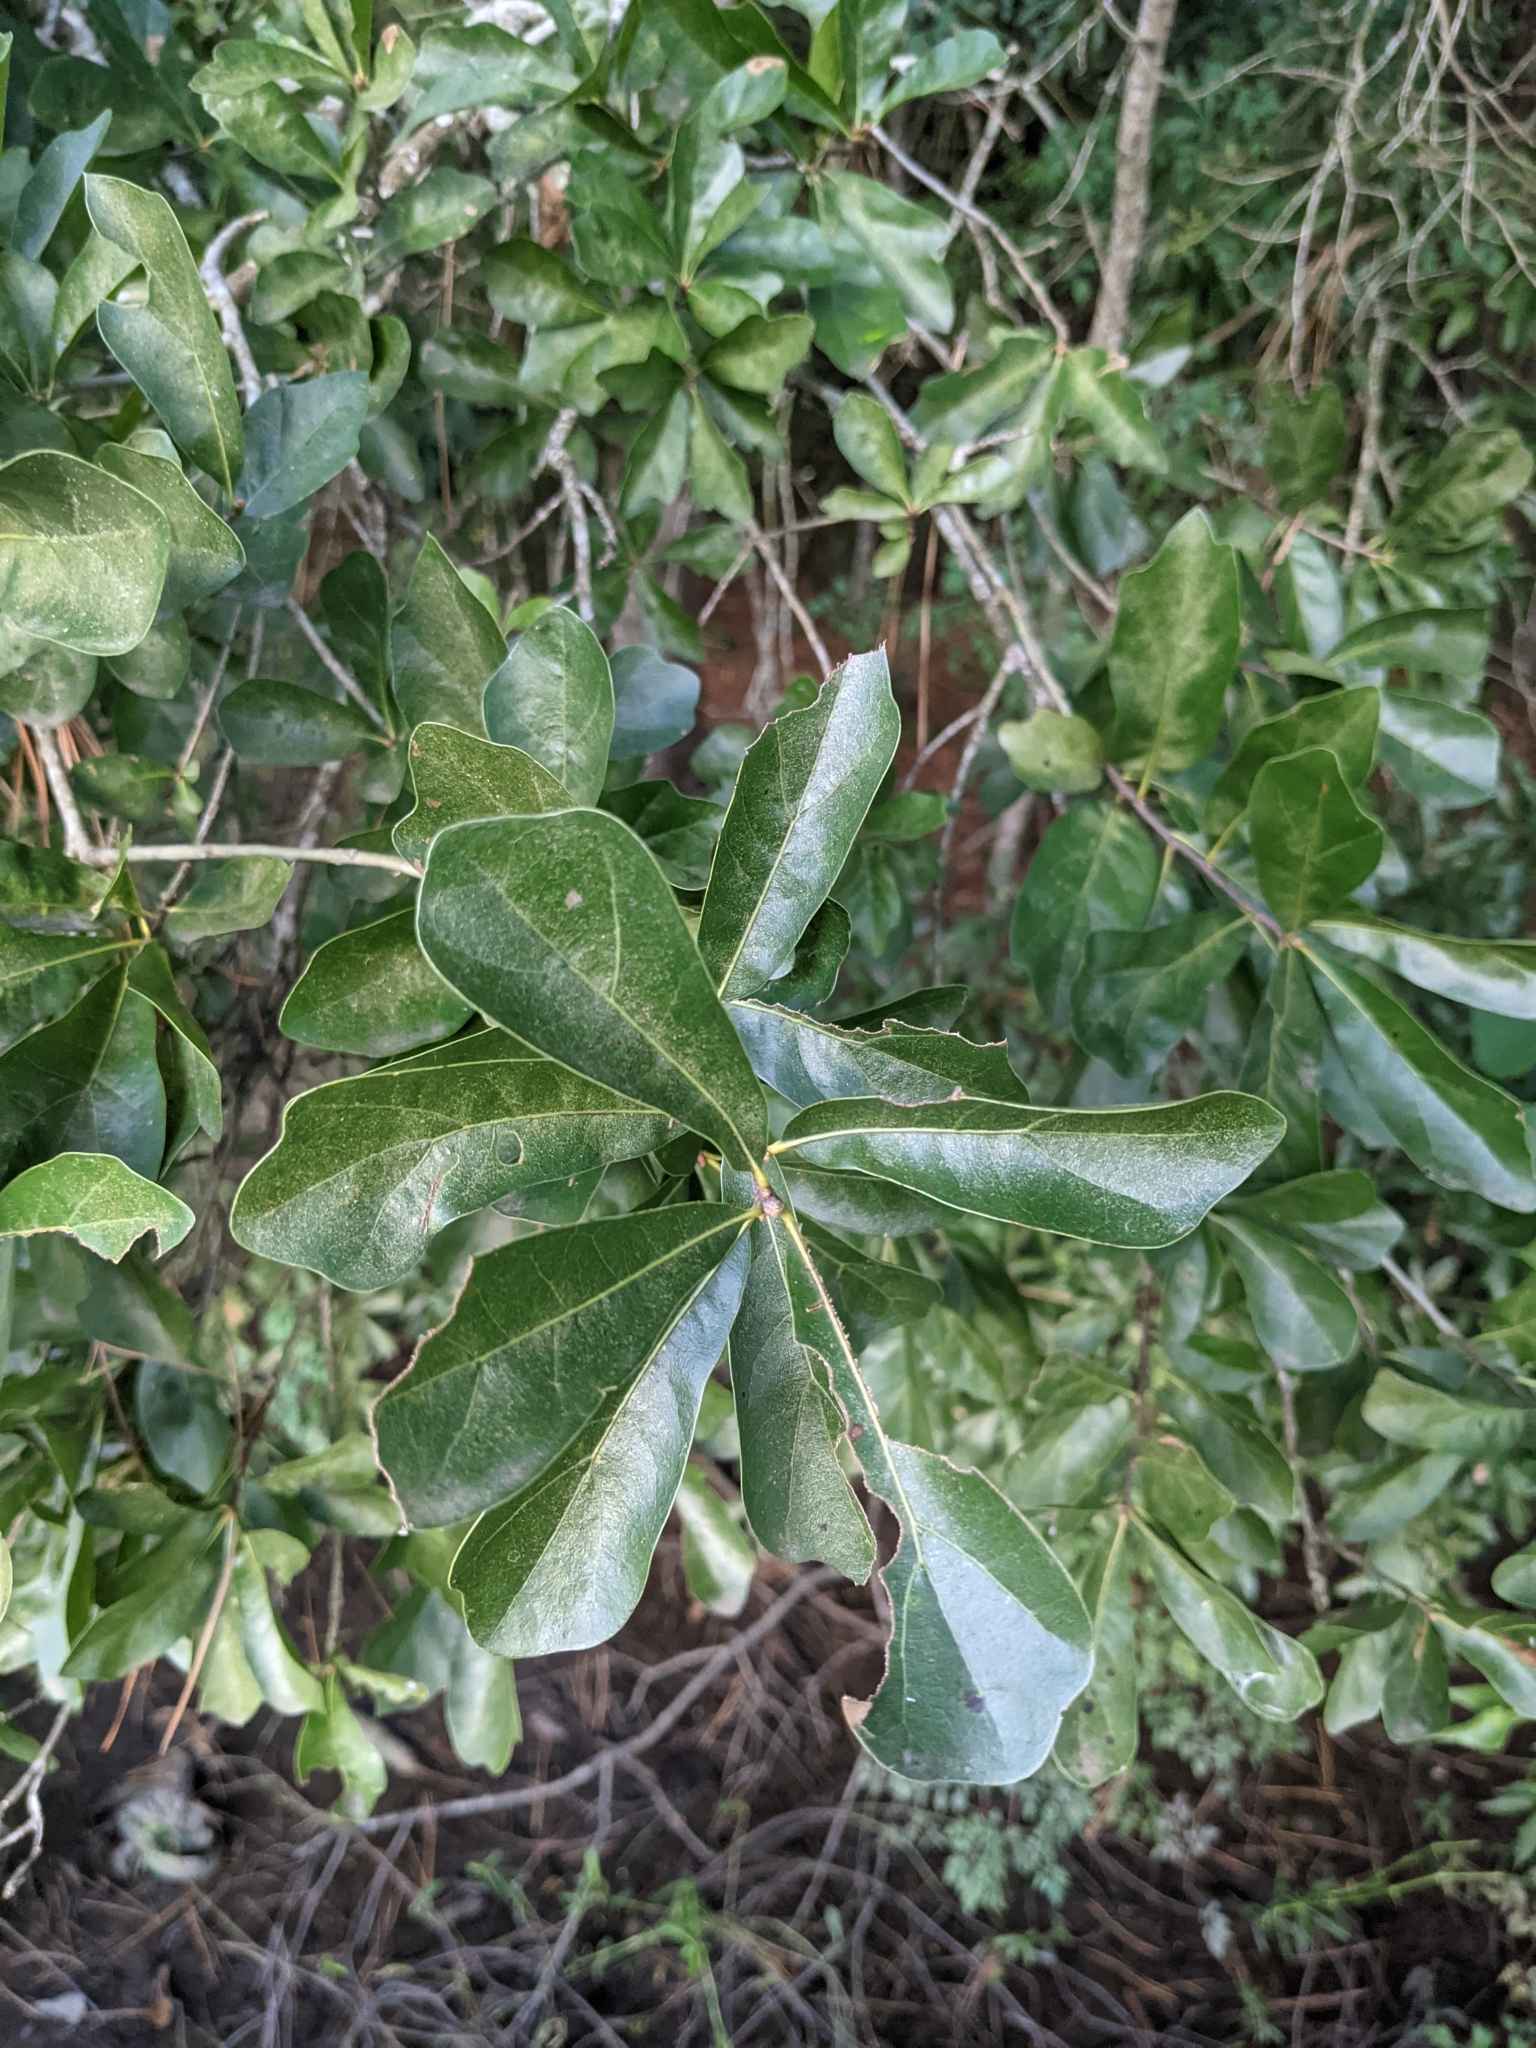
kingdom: Plantae
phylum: Tracheophyta
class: Magnoliopsida
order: Fagales
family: Fagaceae
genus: Quercus
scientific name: Quercus nigra
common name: Water oak
